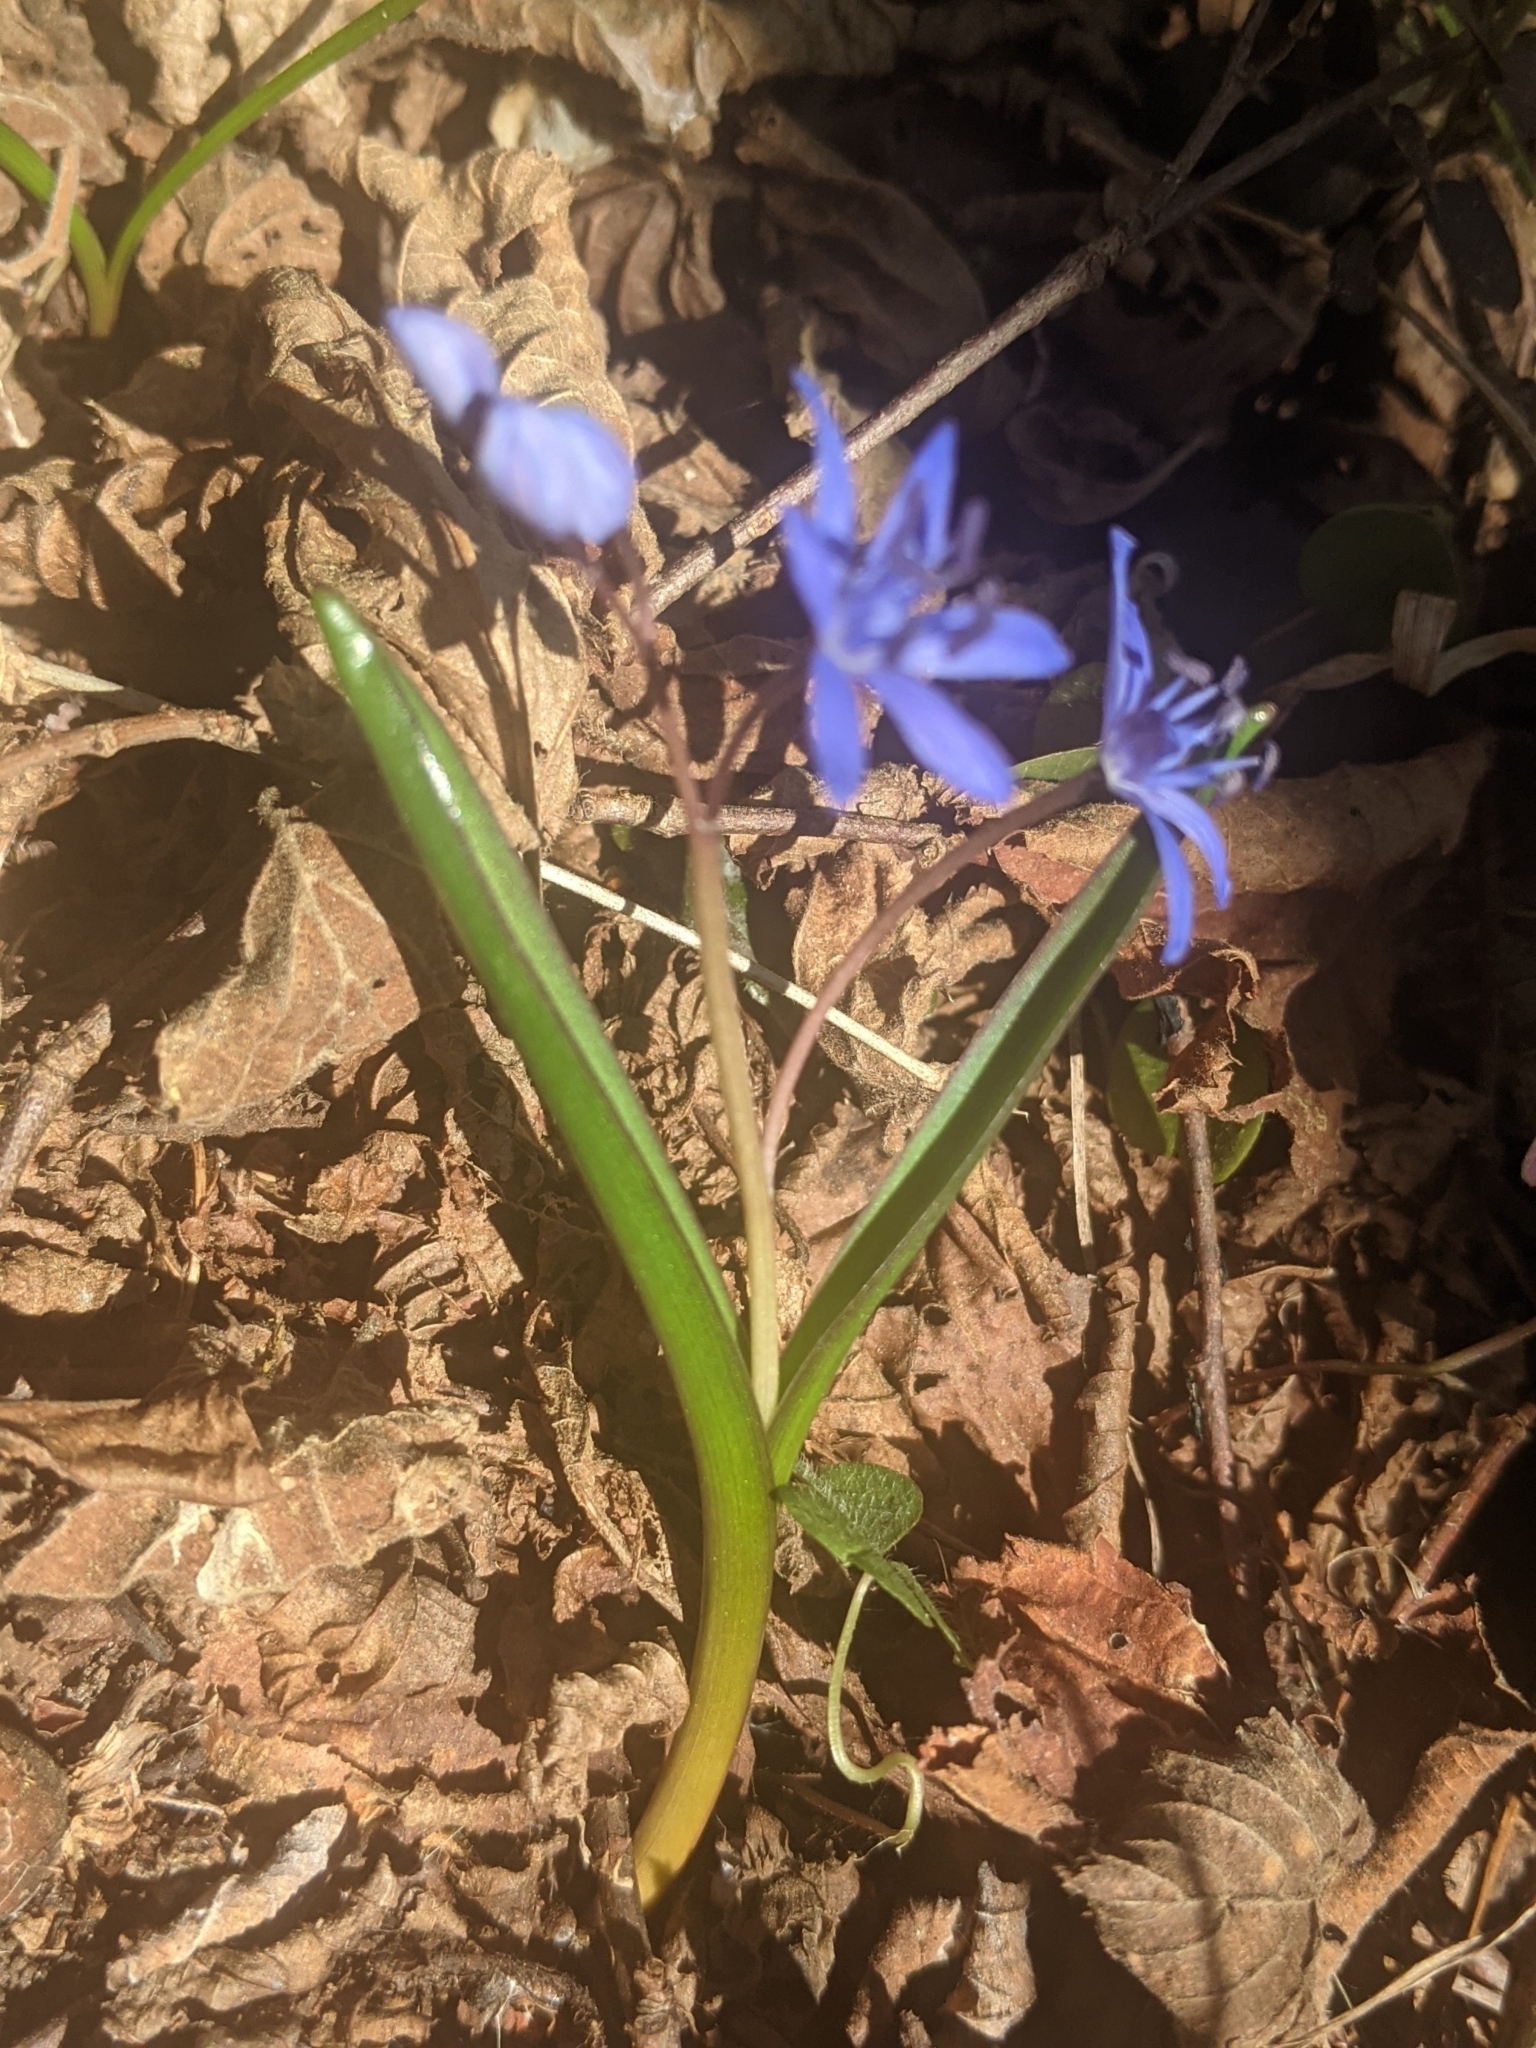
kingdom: Plantae
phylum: Tracheophyta
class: Liliopsida
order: Asparagales
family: Asparagaceae
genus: Scilla
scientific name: Scilla bifolia
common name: Alpine squill
